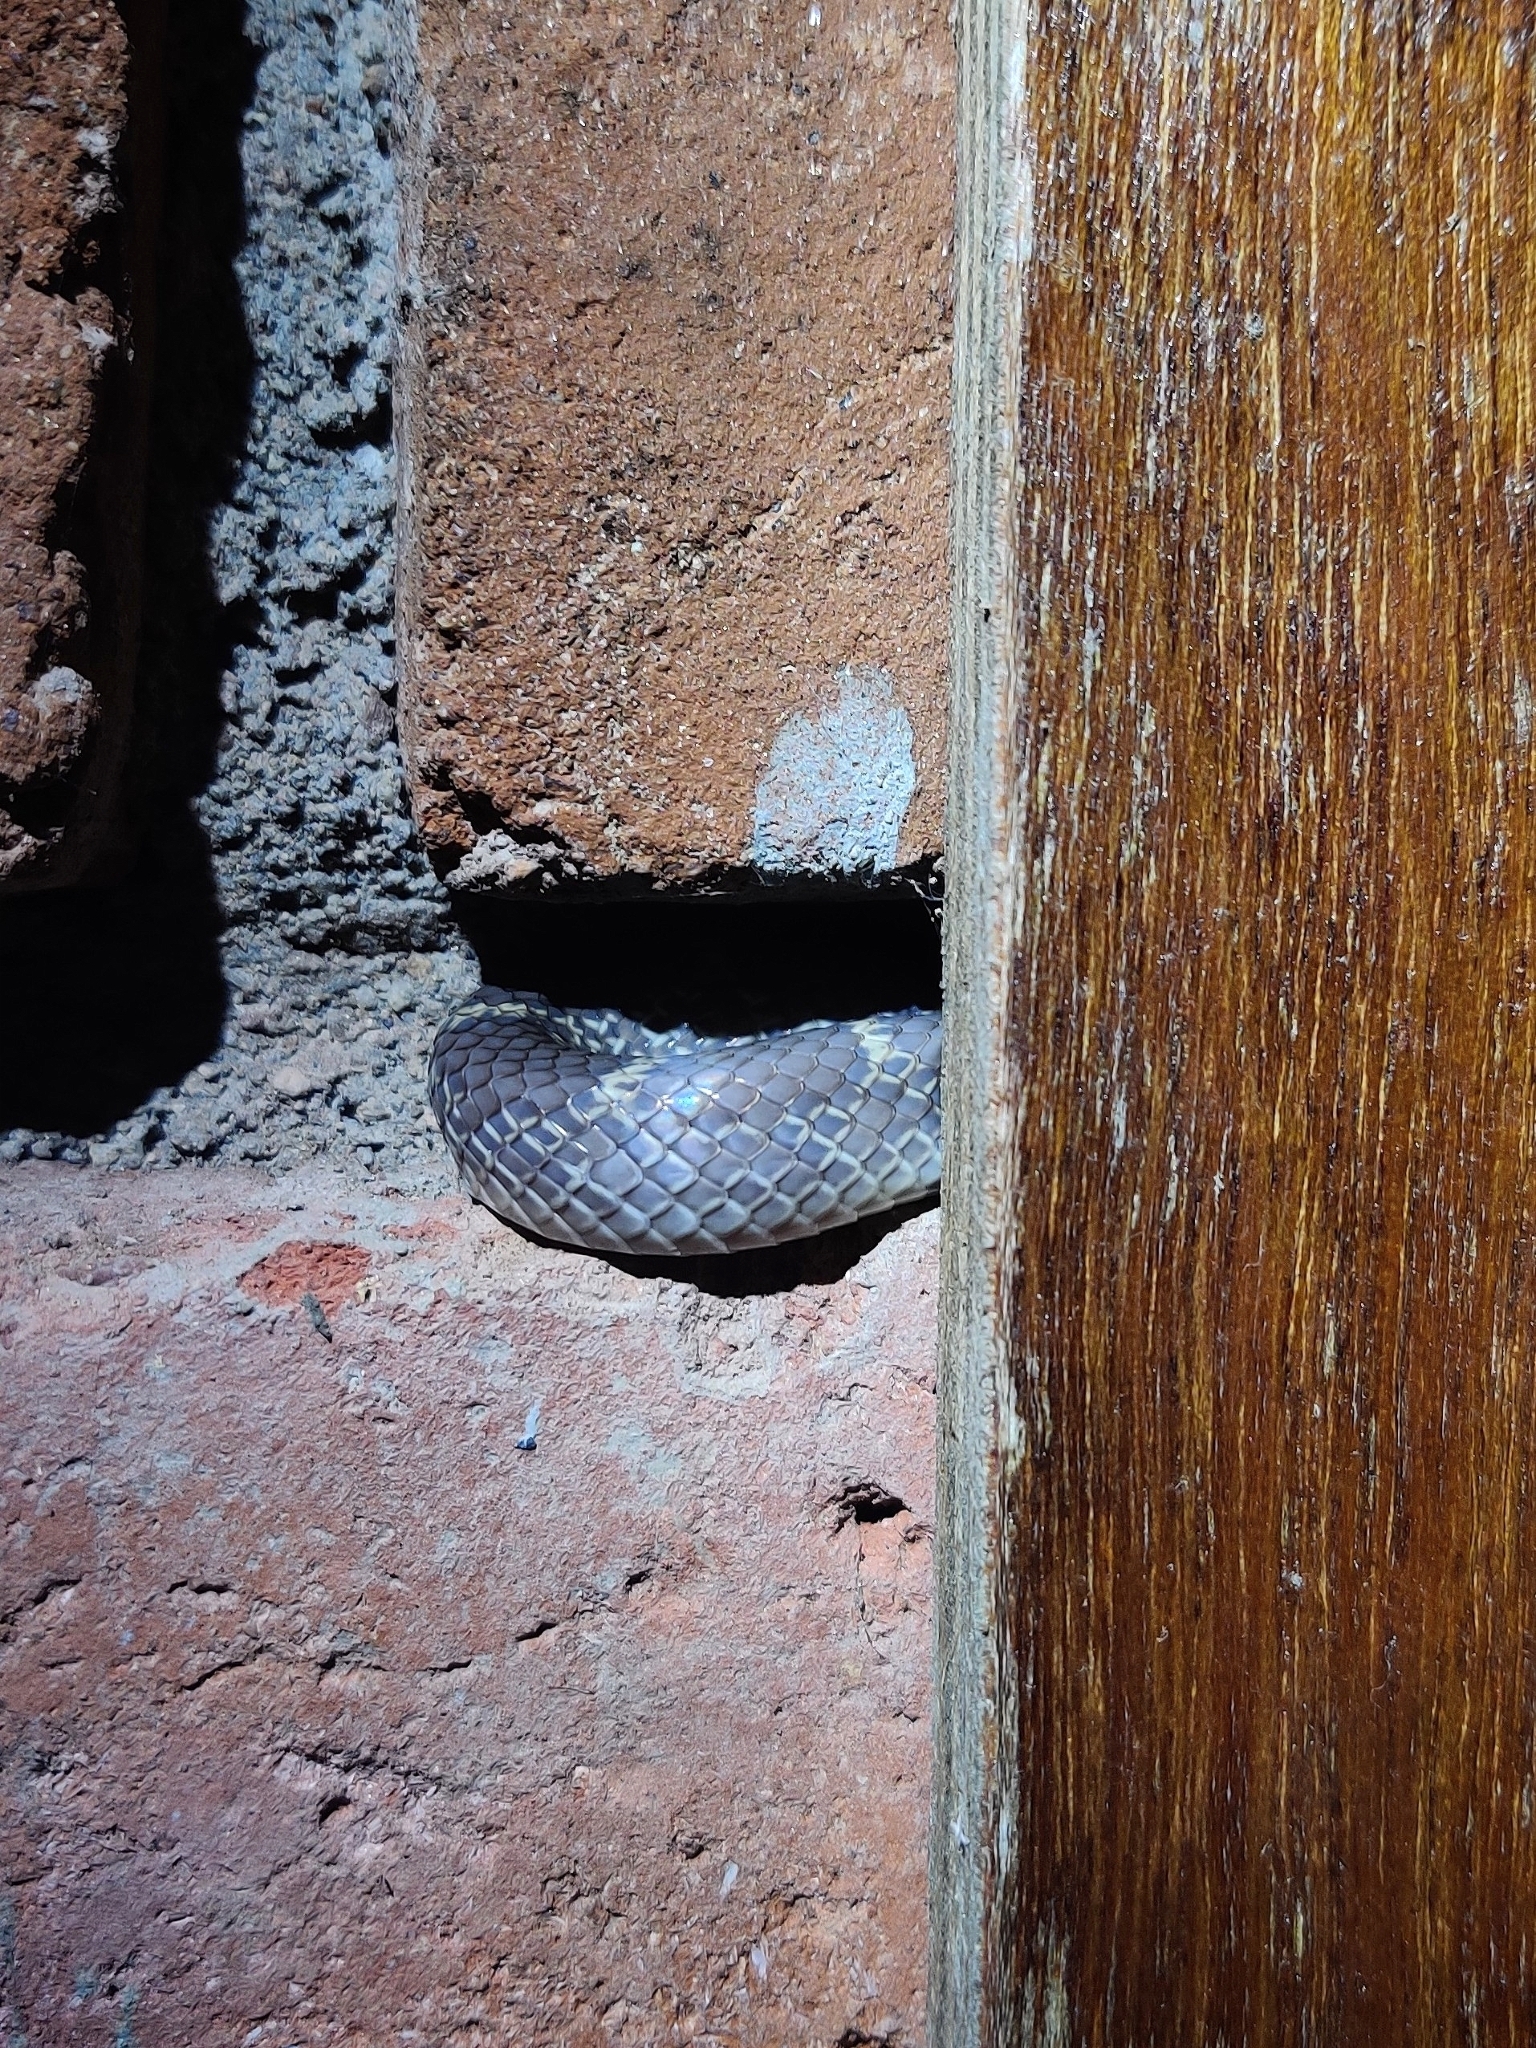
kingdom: Animalia
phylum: Chordata
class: Squamata
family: Colubridae
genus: Lycodon
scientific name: Lycodon fasciolatus
